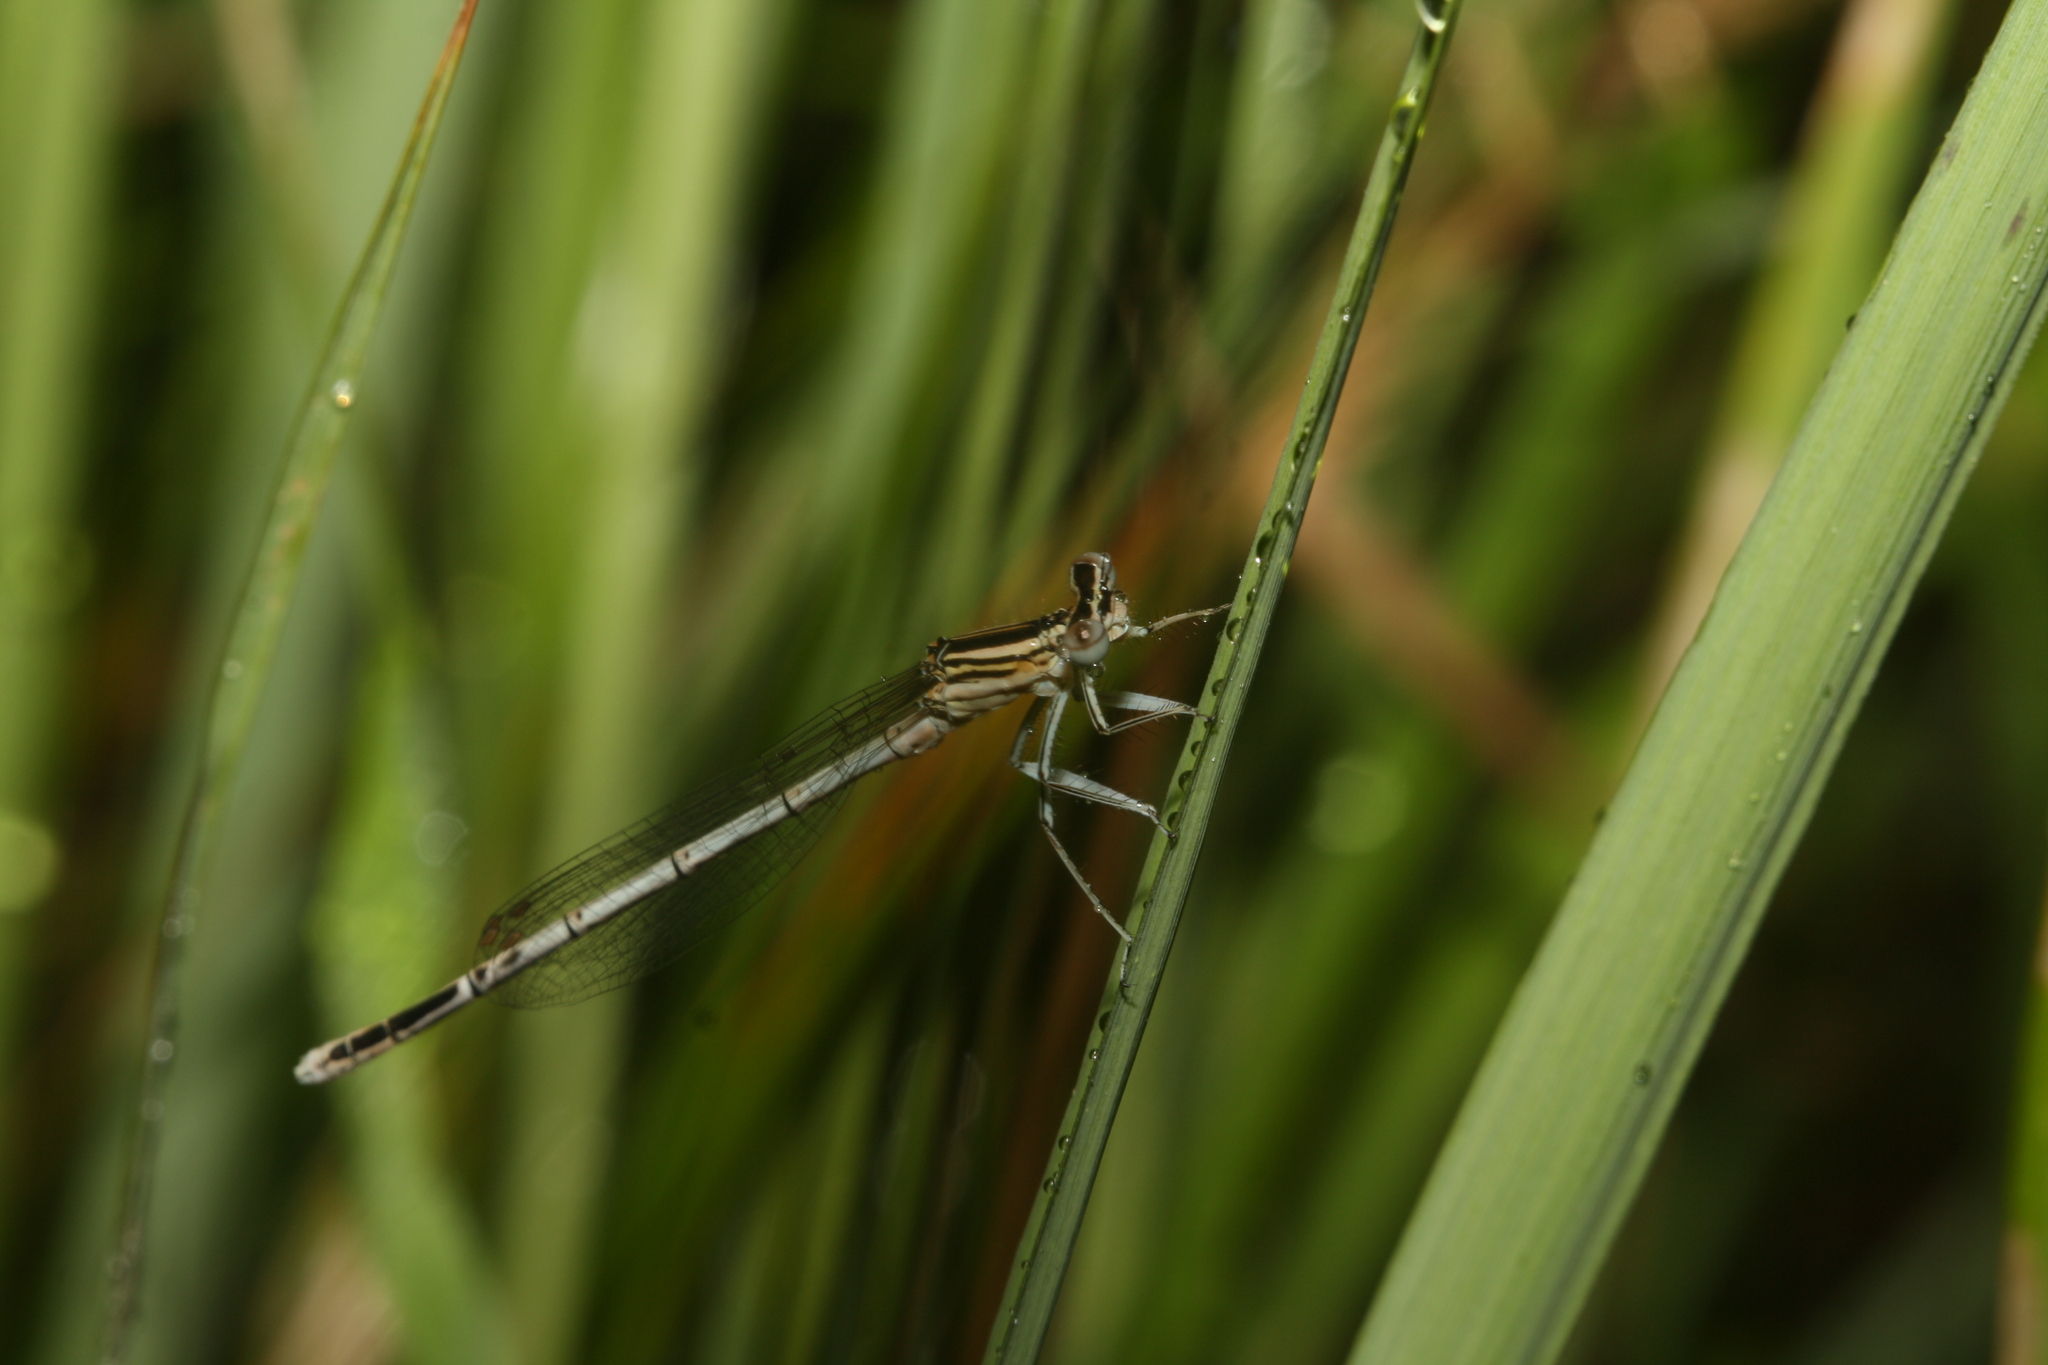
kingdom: Animalia
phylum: Arthropoda
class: Insecta
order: Odonata
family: Platycnemididae
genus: Platycnemis
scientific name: Platycnemis pennipes
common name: White-legged damselfly
